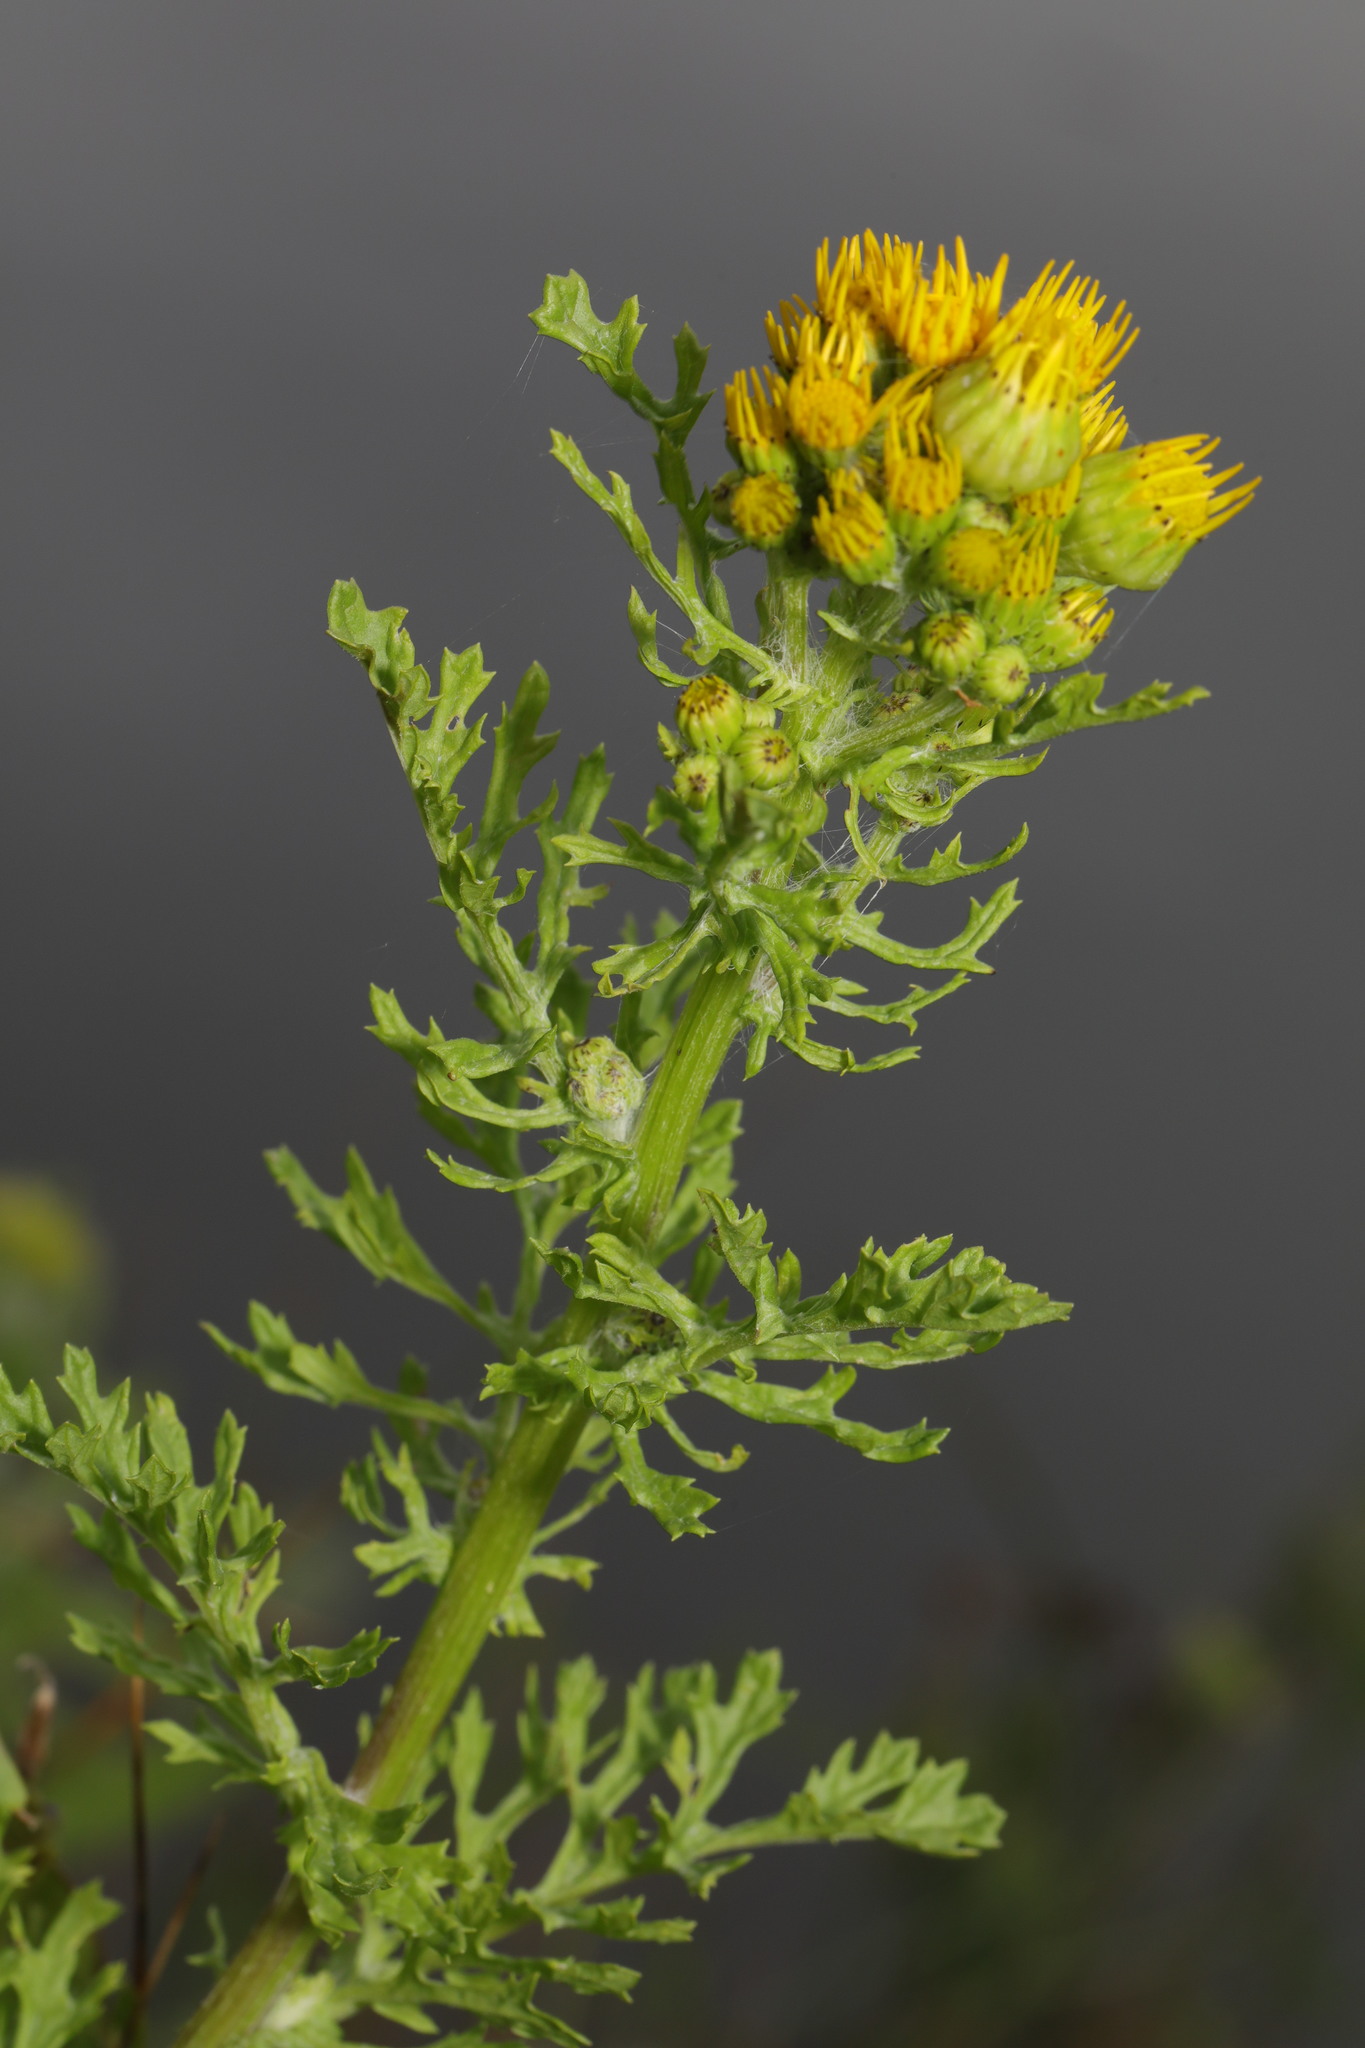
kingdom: Plantae
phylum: Tracheophyta
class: Magnoliopsida
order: Asterales
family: Asteraceae
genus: Jacobaea
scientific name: Jacobaea vulgaris
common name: Stinking willie
